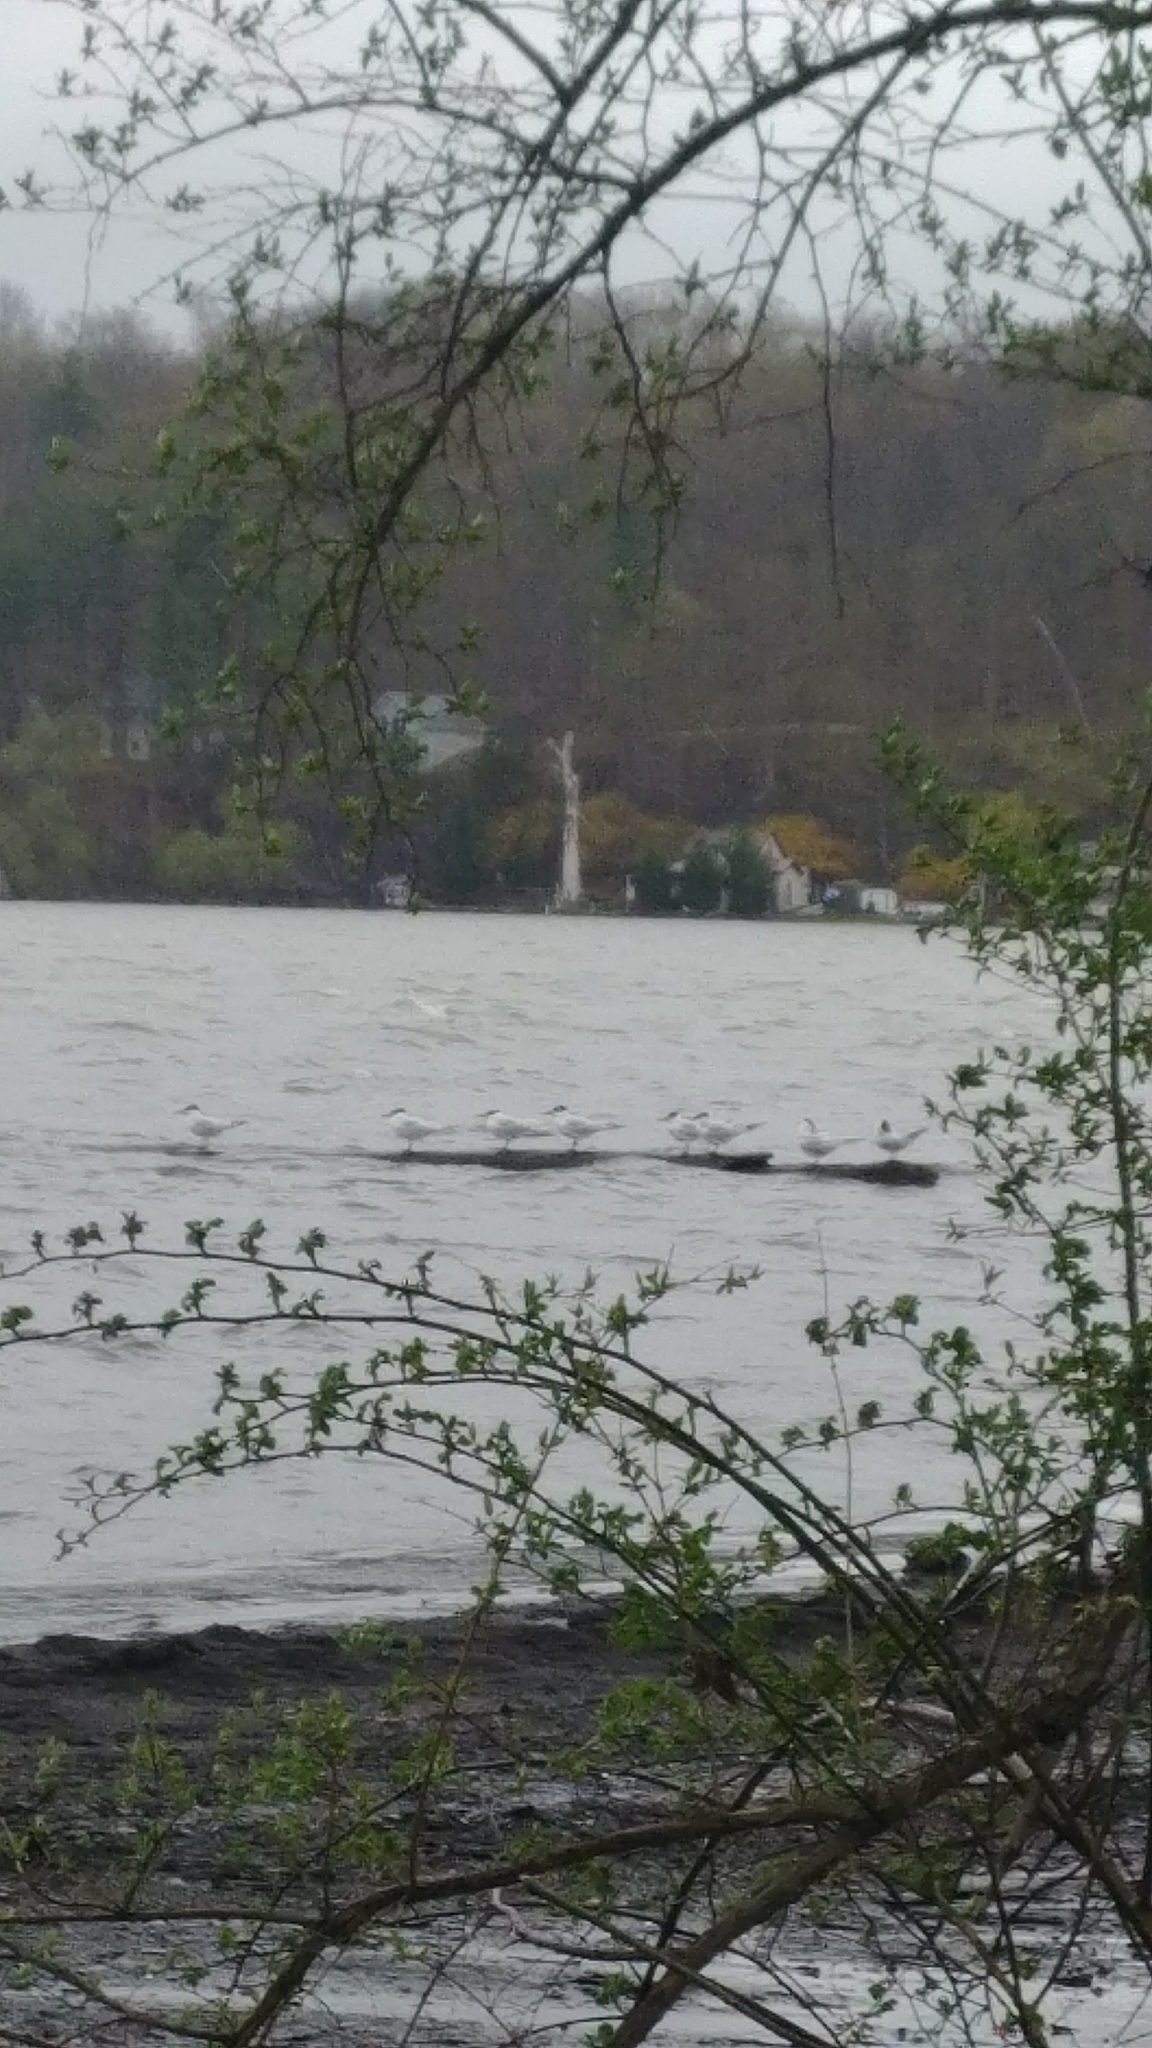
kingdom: Animalia
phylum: Chordata
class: Aves
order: Charadriiformes
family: Laridae
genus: Hydroprogne
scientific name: Hydroprogne caspia
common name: Caspian tern
